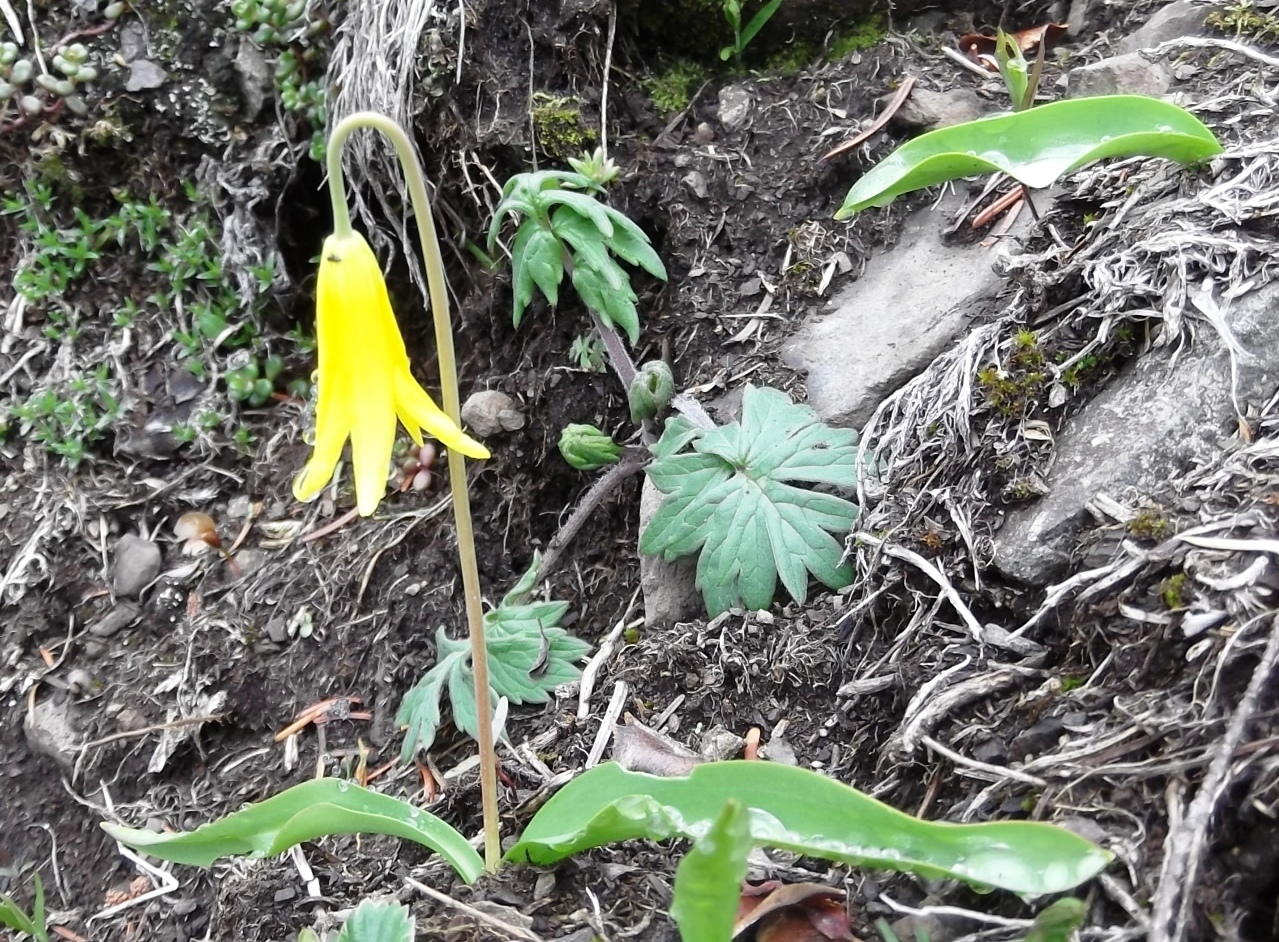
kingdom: Plantae
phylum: Tracheophyta
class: Liliopsida
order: Liliales
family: Liliaceae
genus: Erythronium
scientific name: Erythronium grandiflorum
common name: Avalanche-lily
